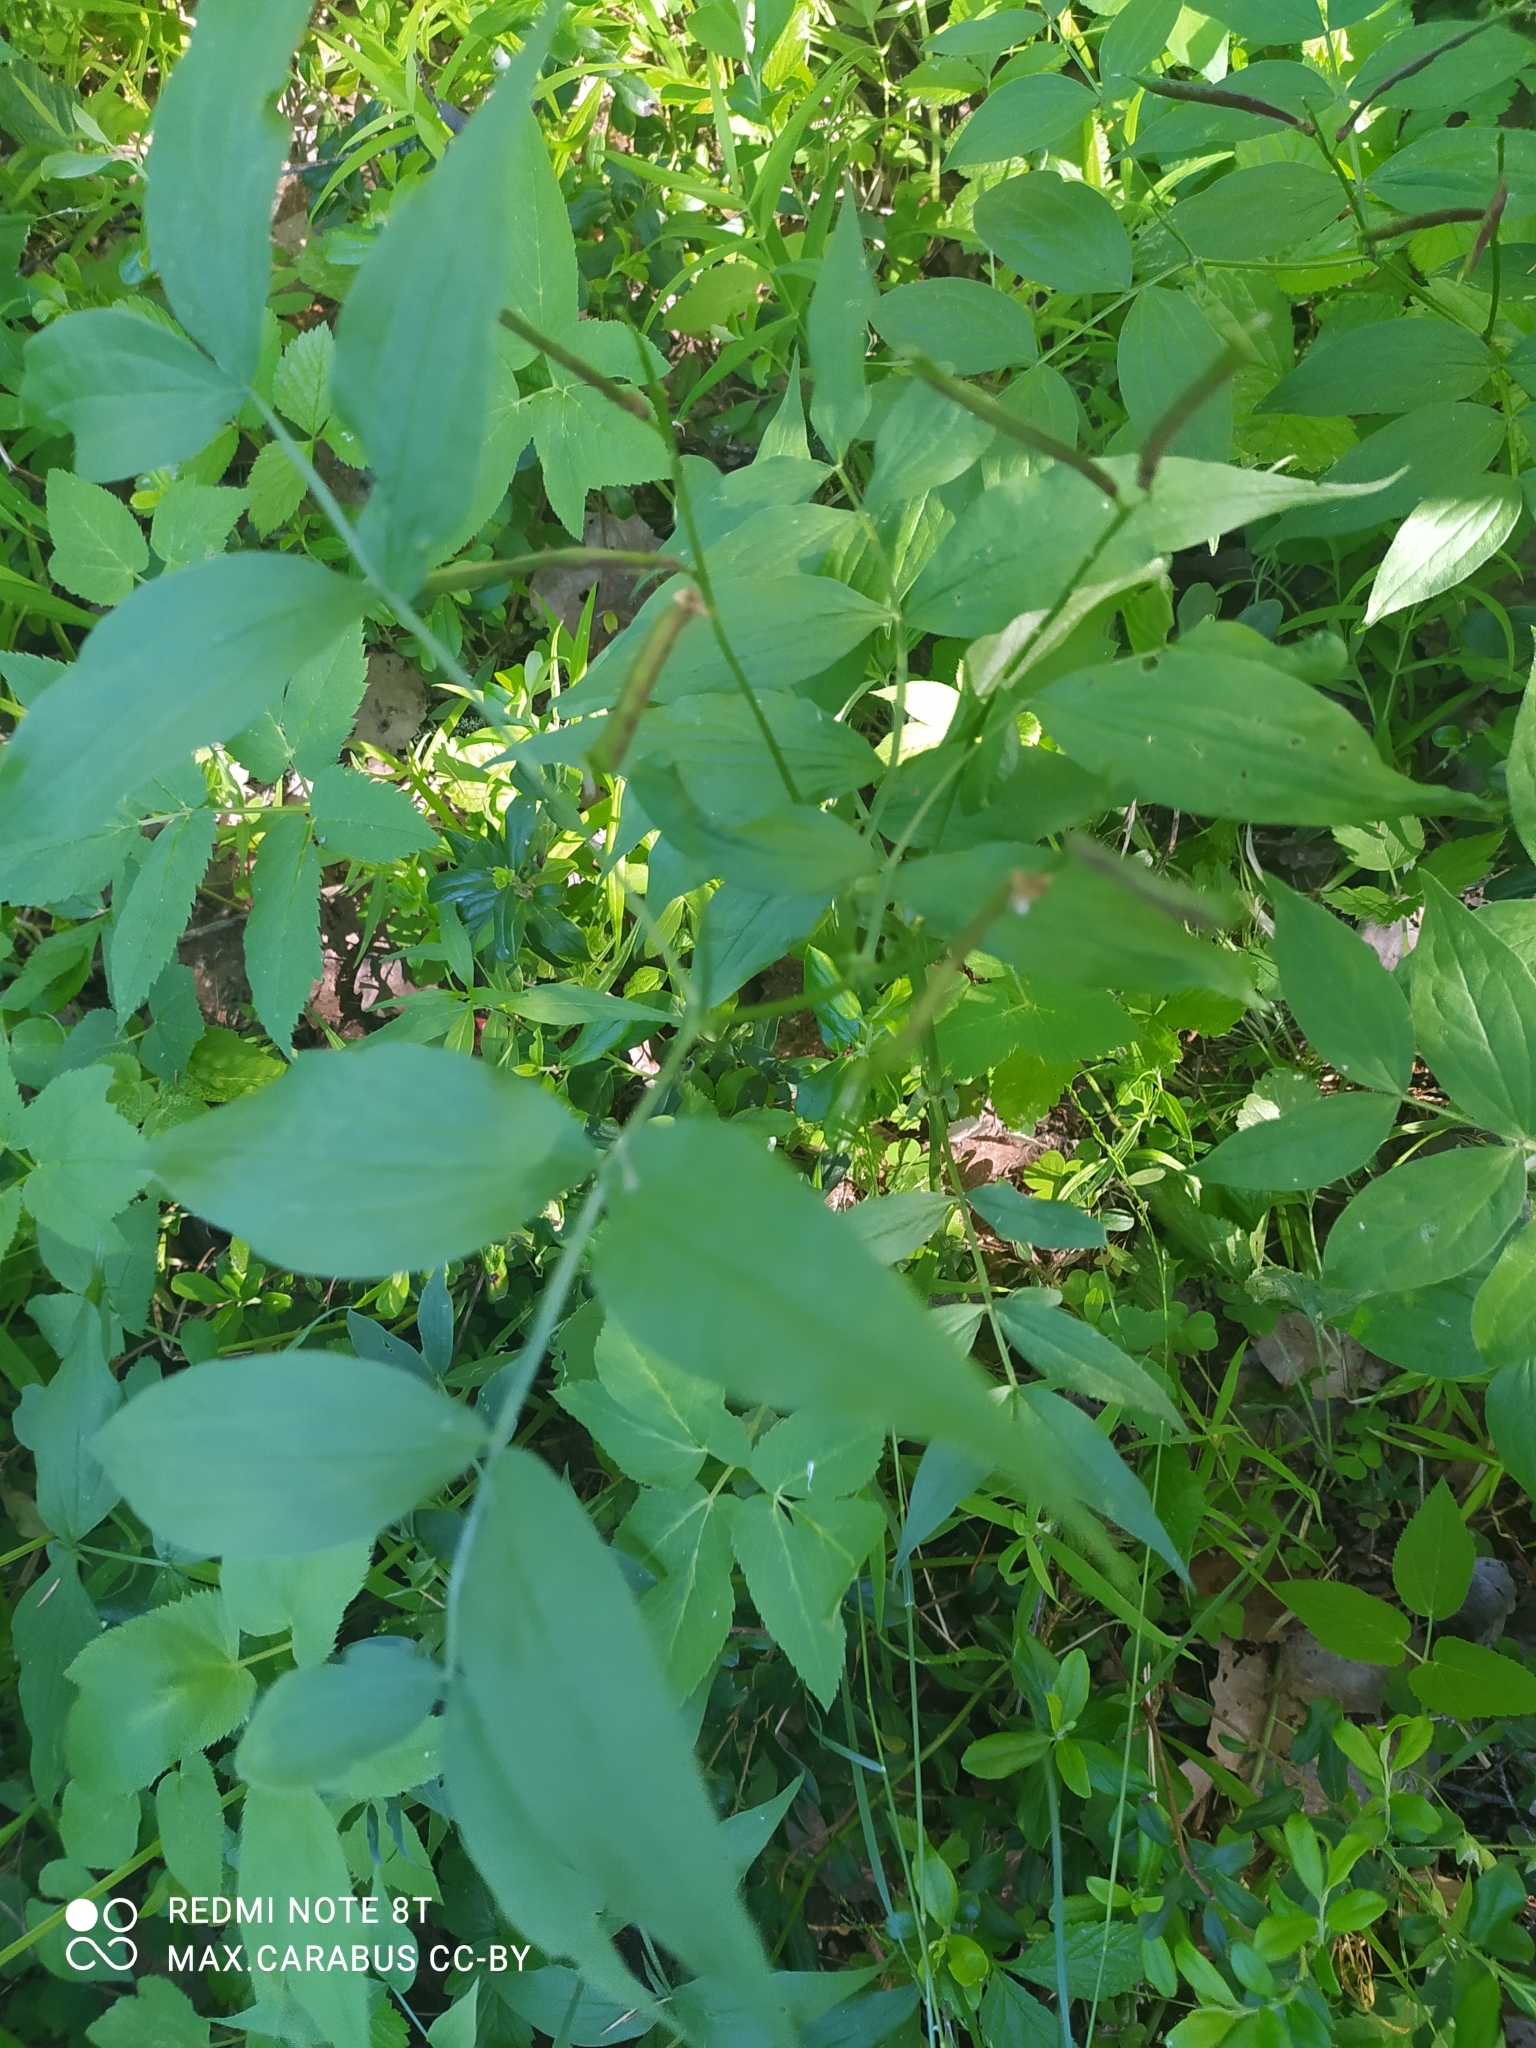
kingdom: Plantae
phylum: Tracheophyta
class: Magnoliopsida
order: Fabales
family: Fabaceae
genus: Lathyrus
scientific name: Lathyrus vernus
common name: Spring pea
